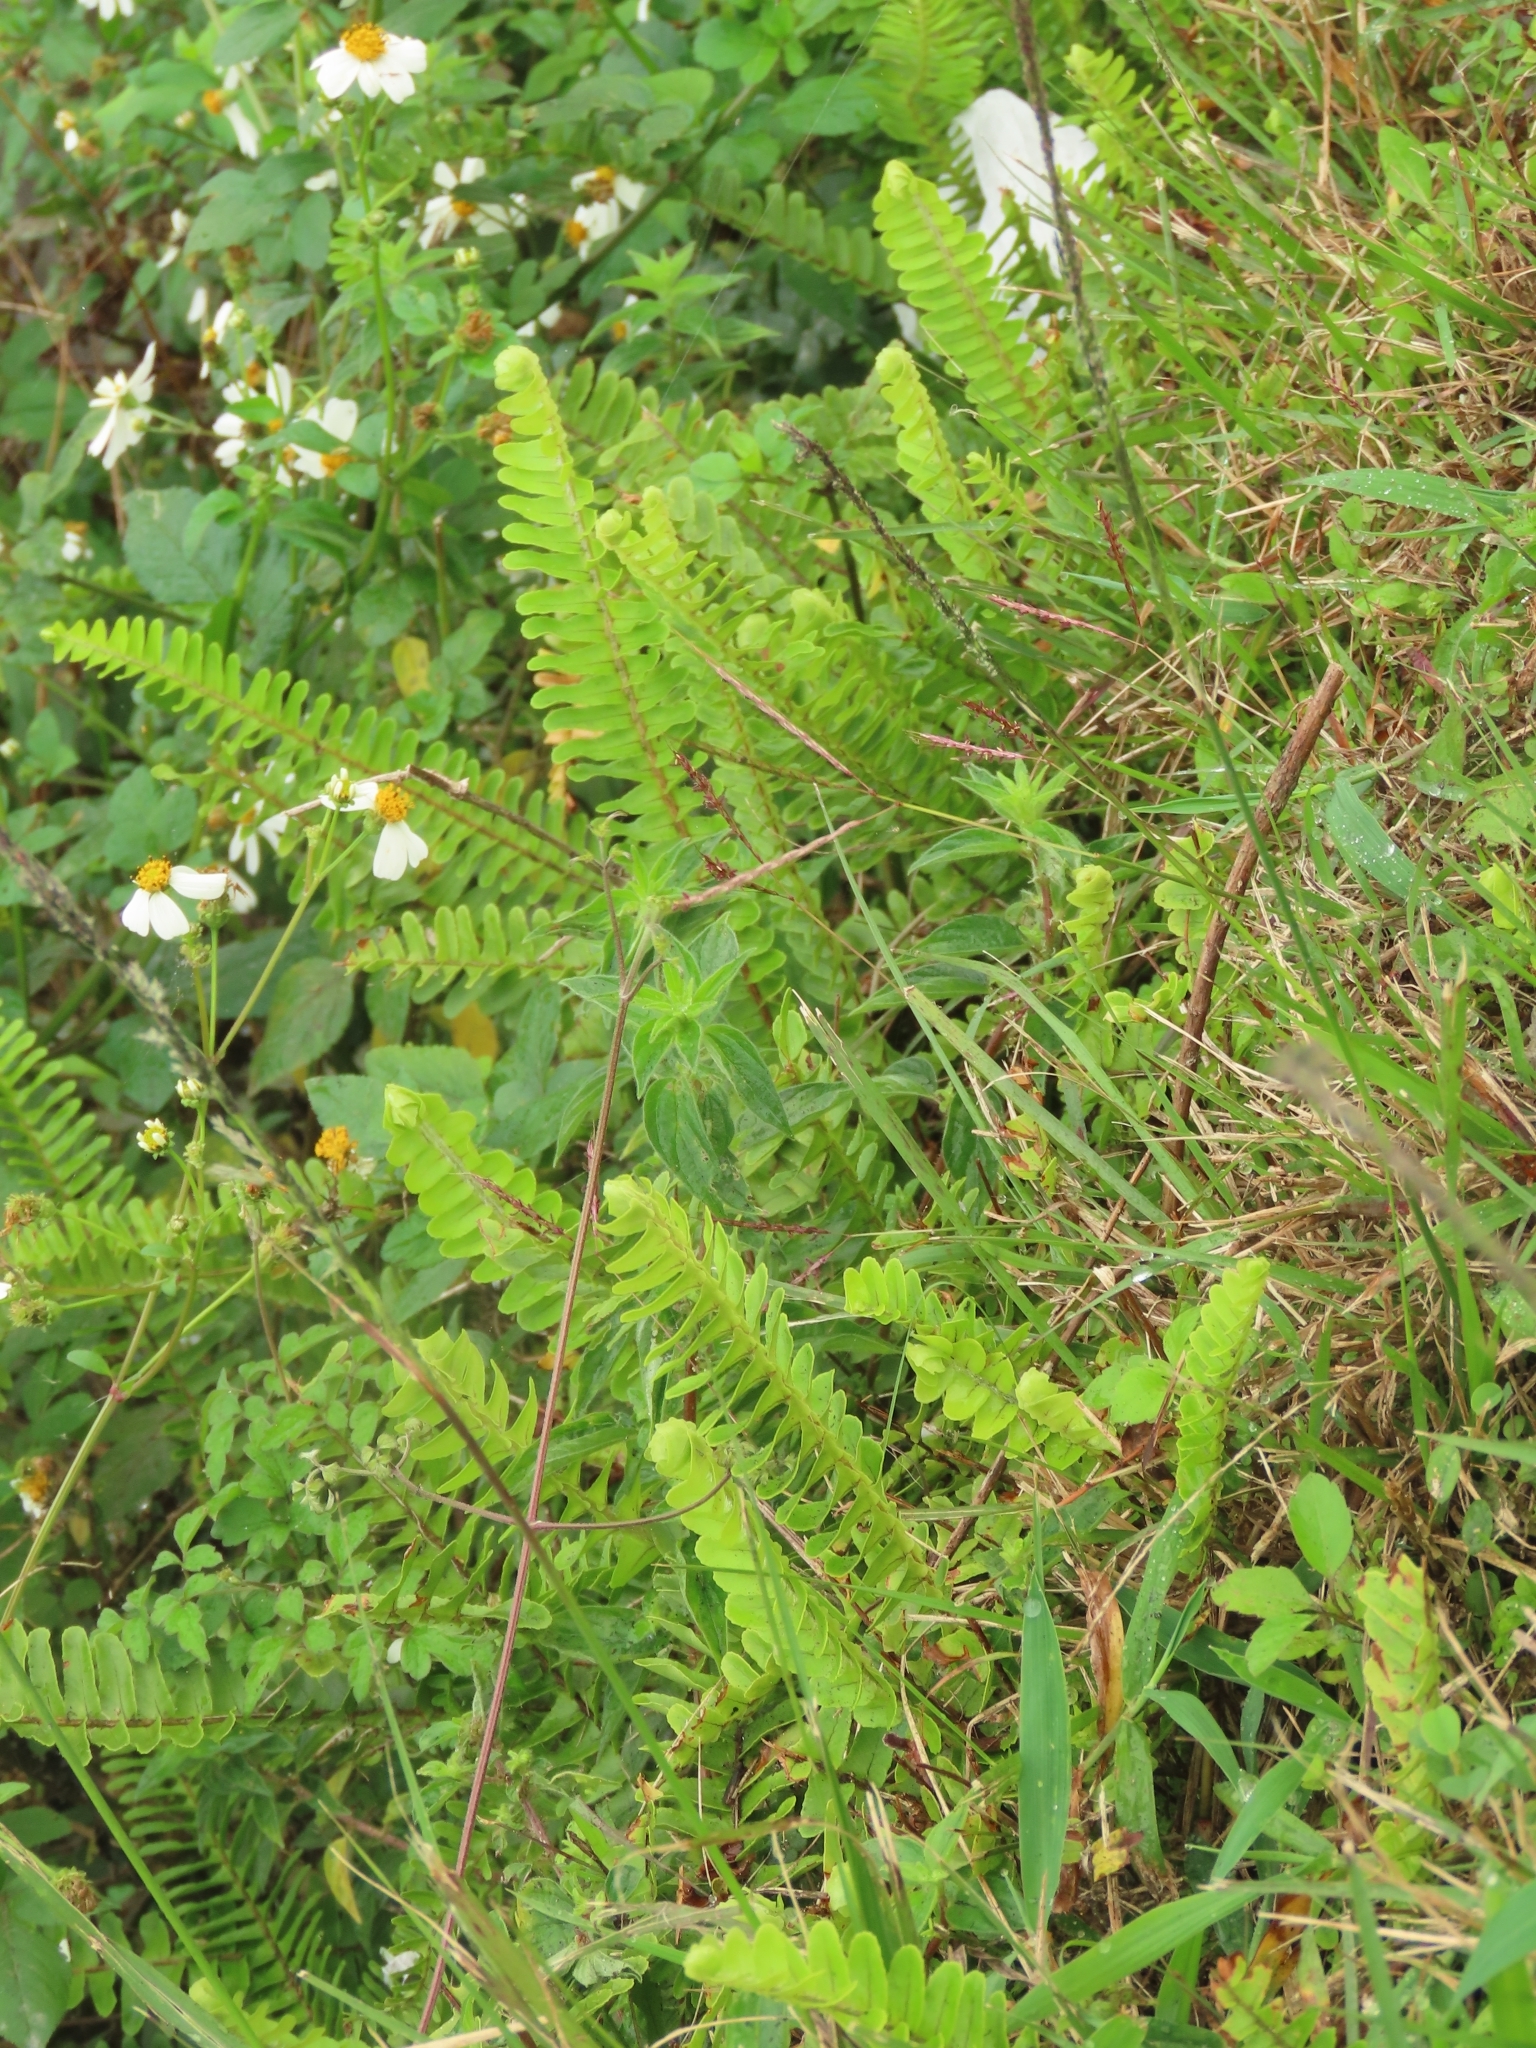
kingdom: Plantae
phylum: Tracheophyta
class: Polypodiopsida
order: Polypodiales
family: Nephrolepidaceae
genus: Nephrolepis
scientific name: Nephrolepis cordifolia
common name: Narrow swordfern
